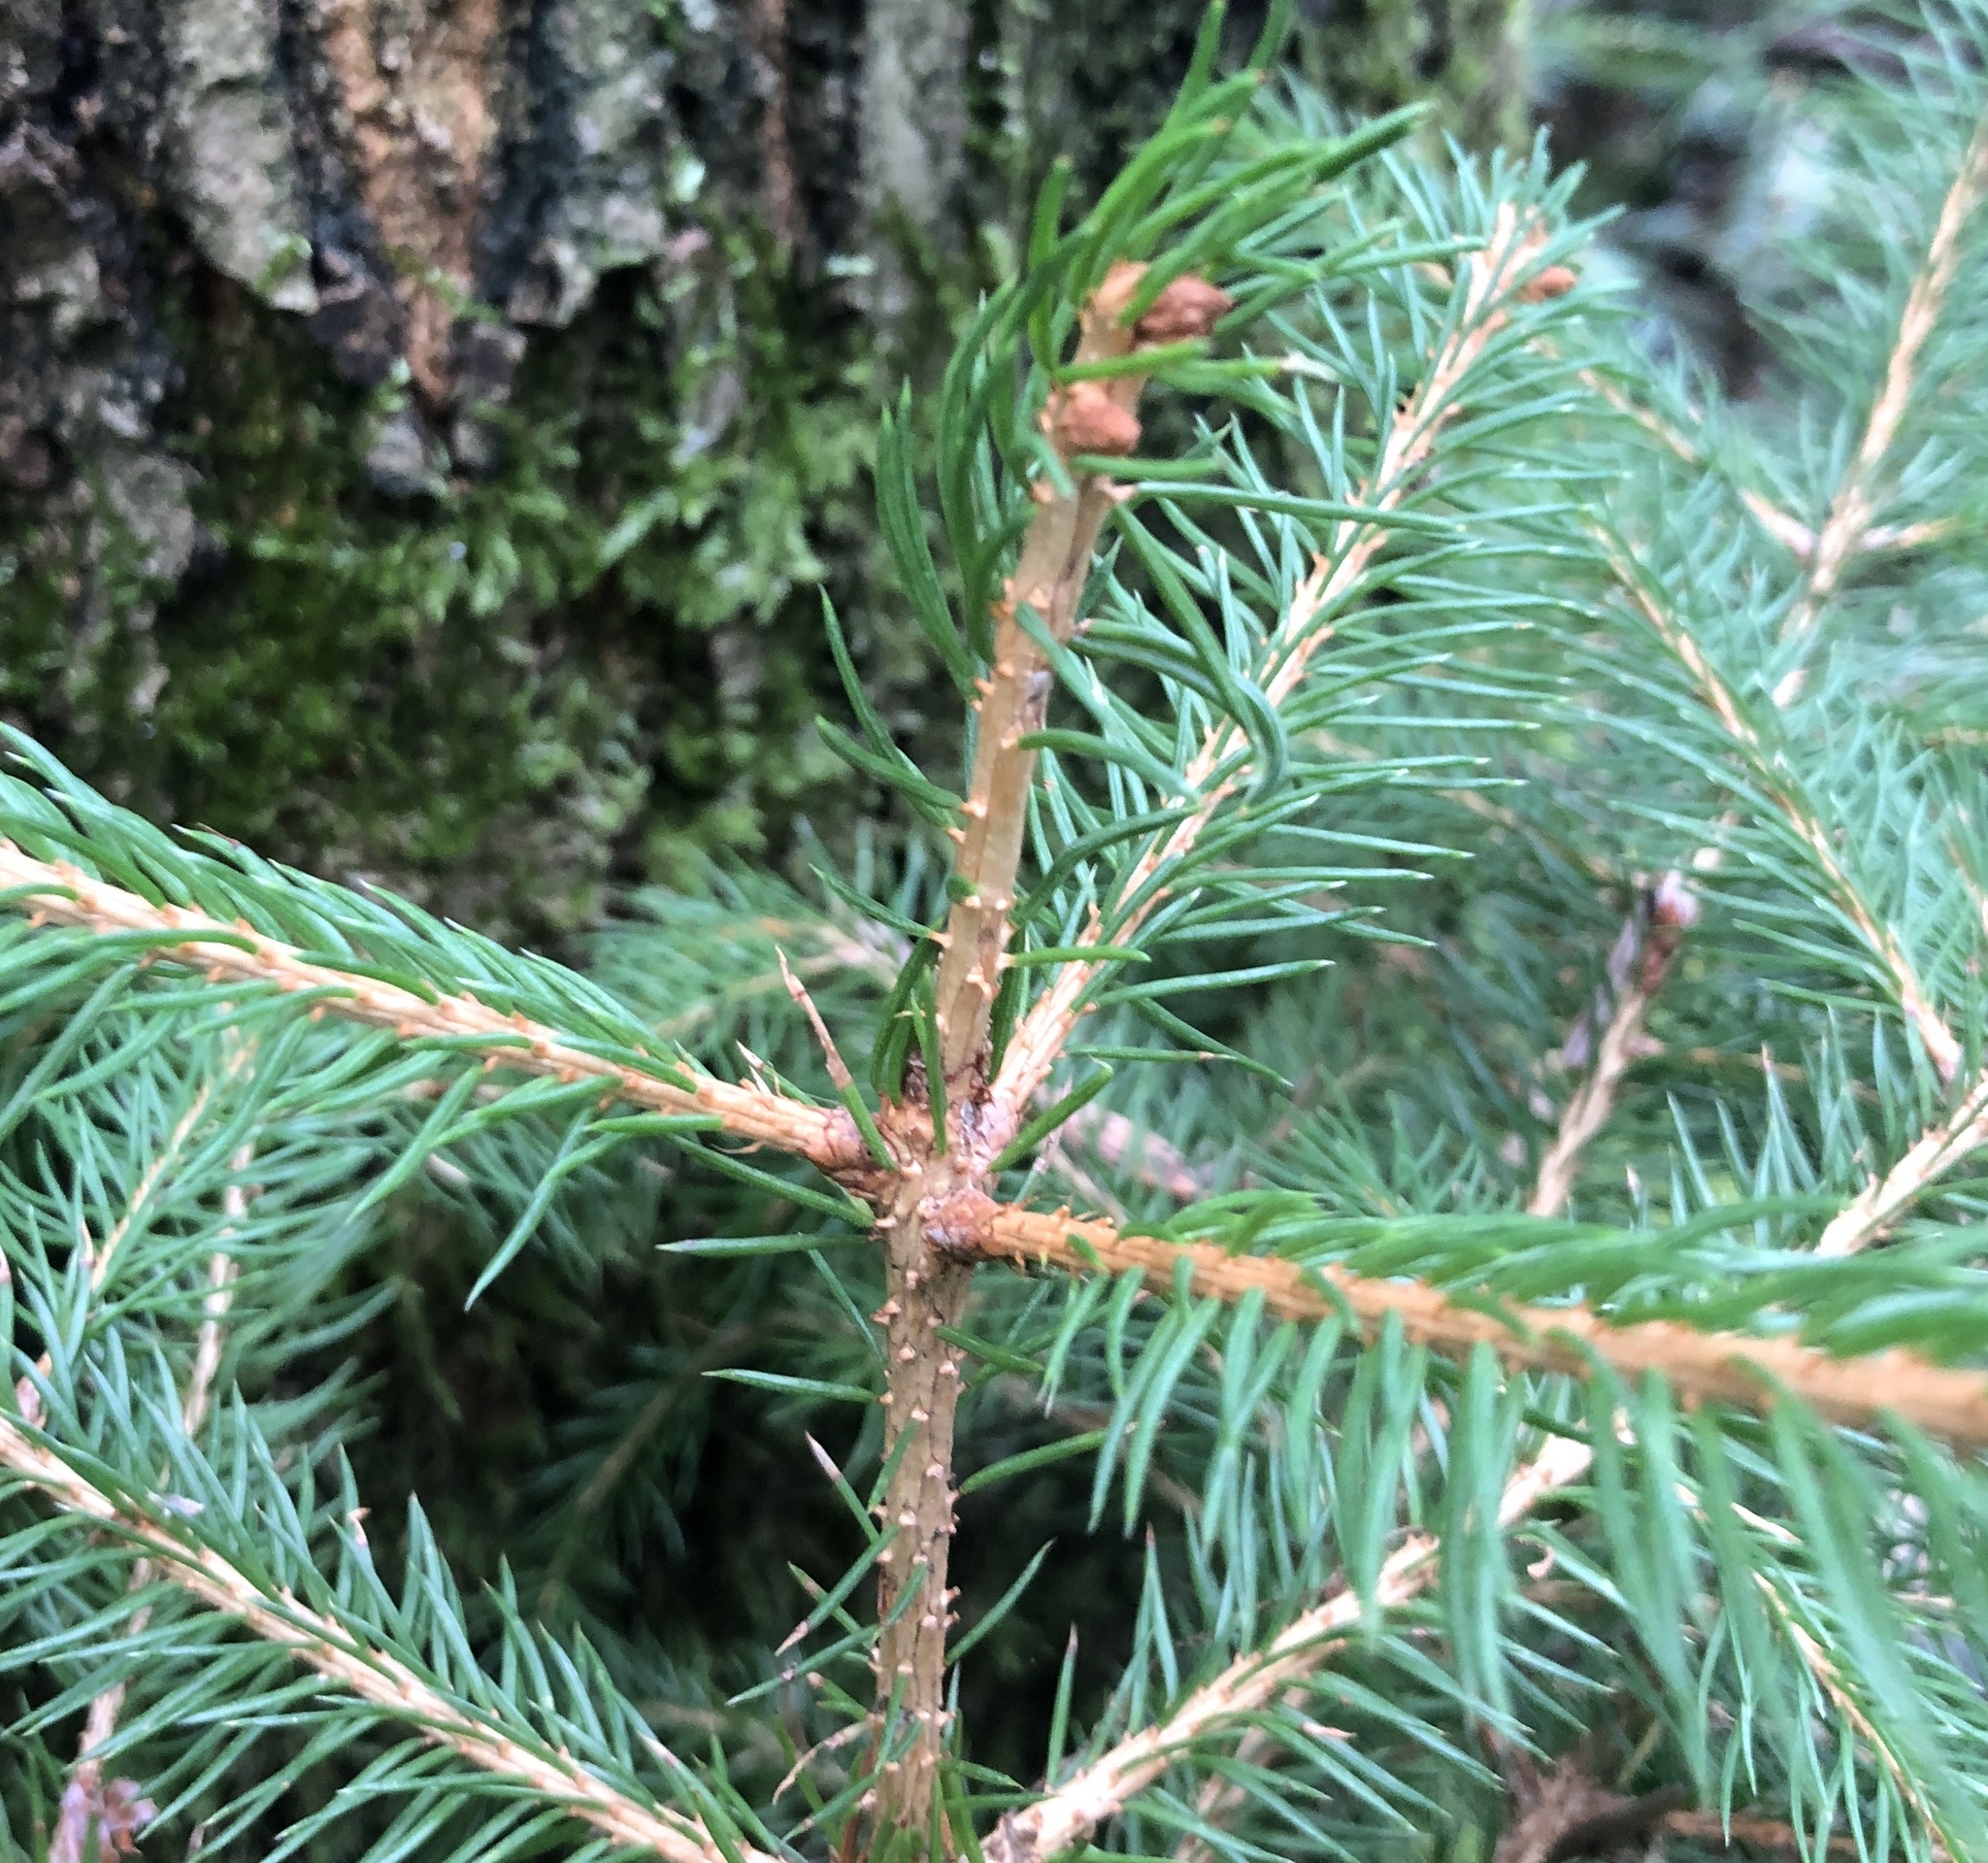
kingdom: Plantae
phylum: Tracheophyta
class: Pinopsida
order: Pinales
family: Pinaceae
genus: Picea
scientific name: Picea abies
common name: Norway spruce
